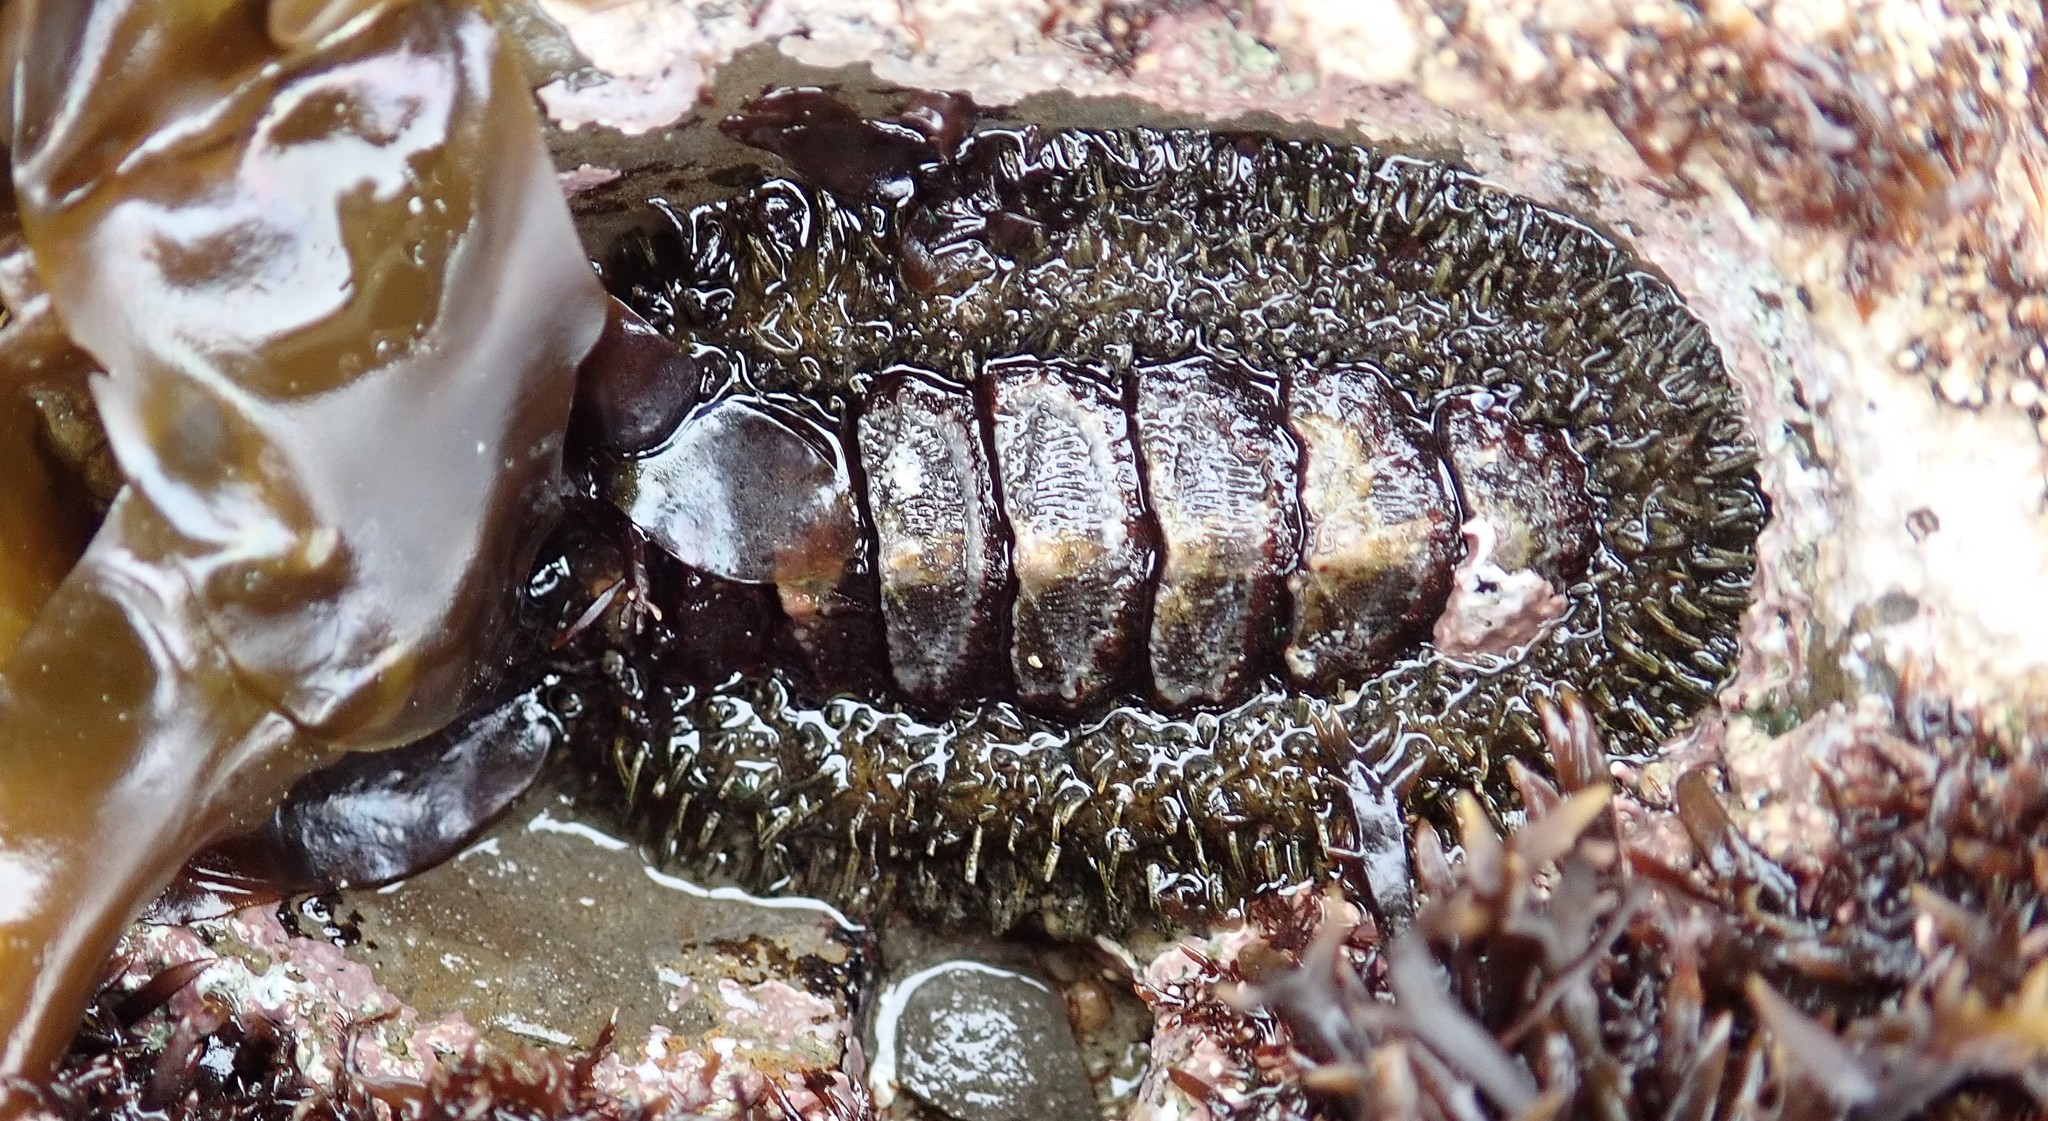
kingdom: Animalia
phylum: Mollusca
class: Polyplacophora
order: Chitonida
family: Mopaliidae
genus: Mopalia
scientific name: Mopalia muscosa
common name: Mossy chiton
